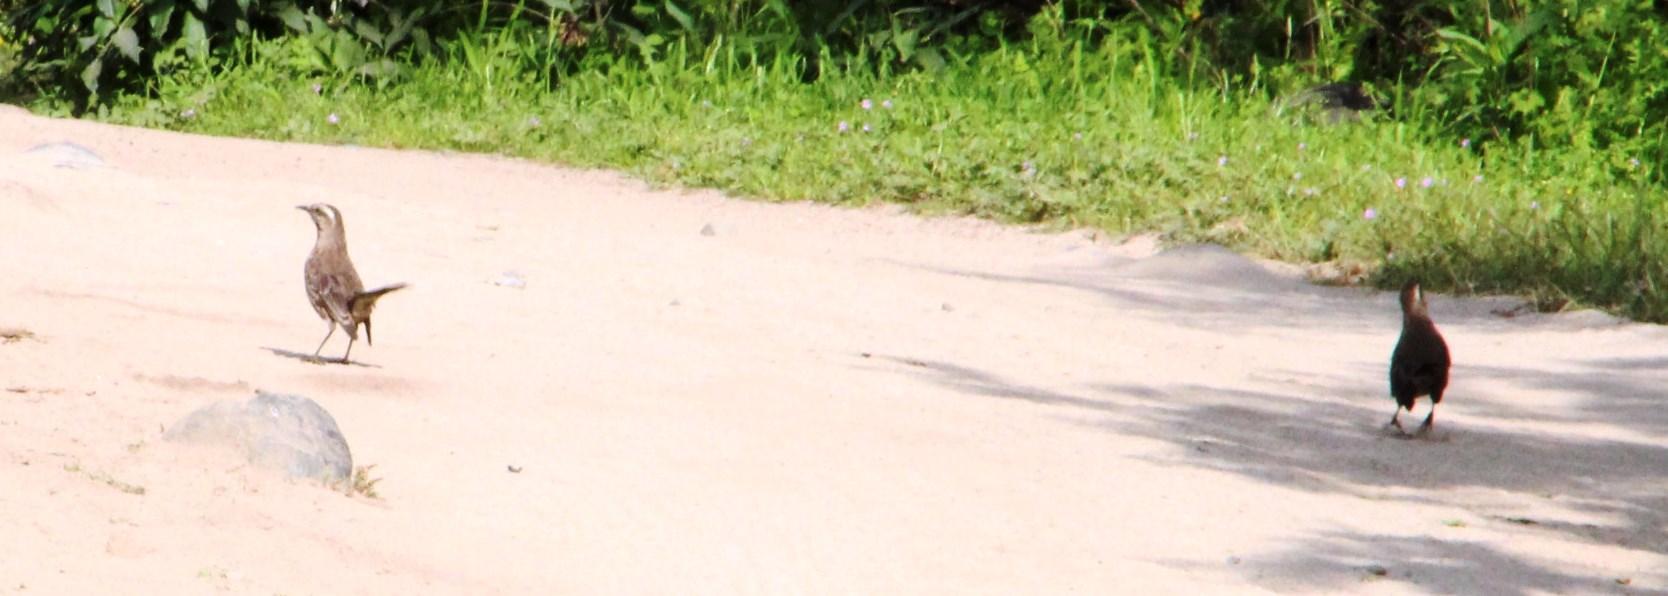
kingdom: Animalia
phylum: Chordata
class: Aves
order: Passeriformes
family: Mimidae
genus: Mimus
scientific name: Mimus thenca
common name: Chilean mockingbird
